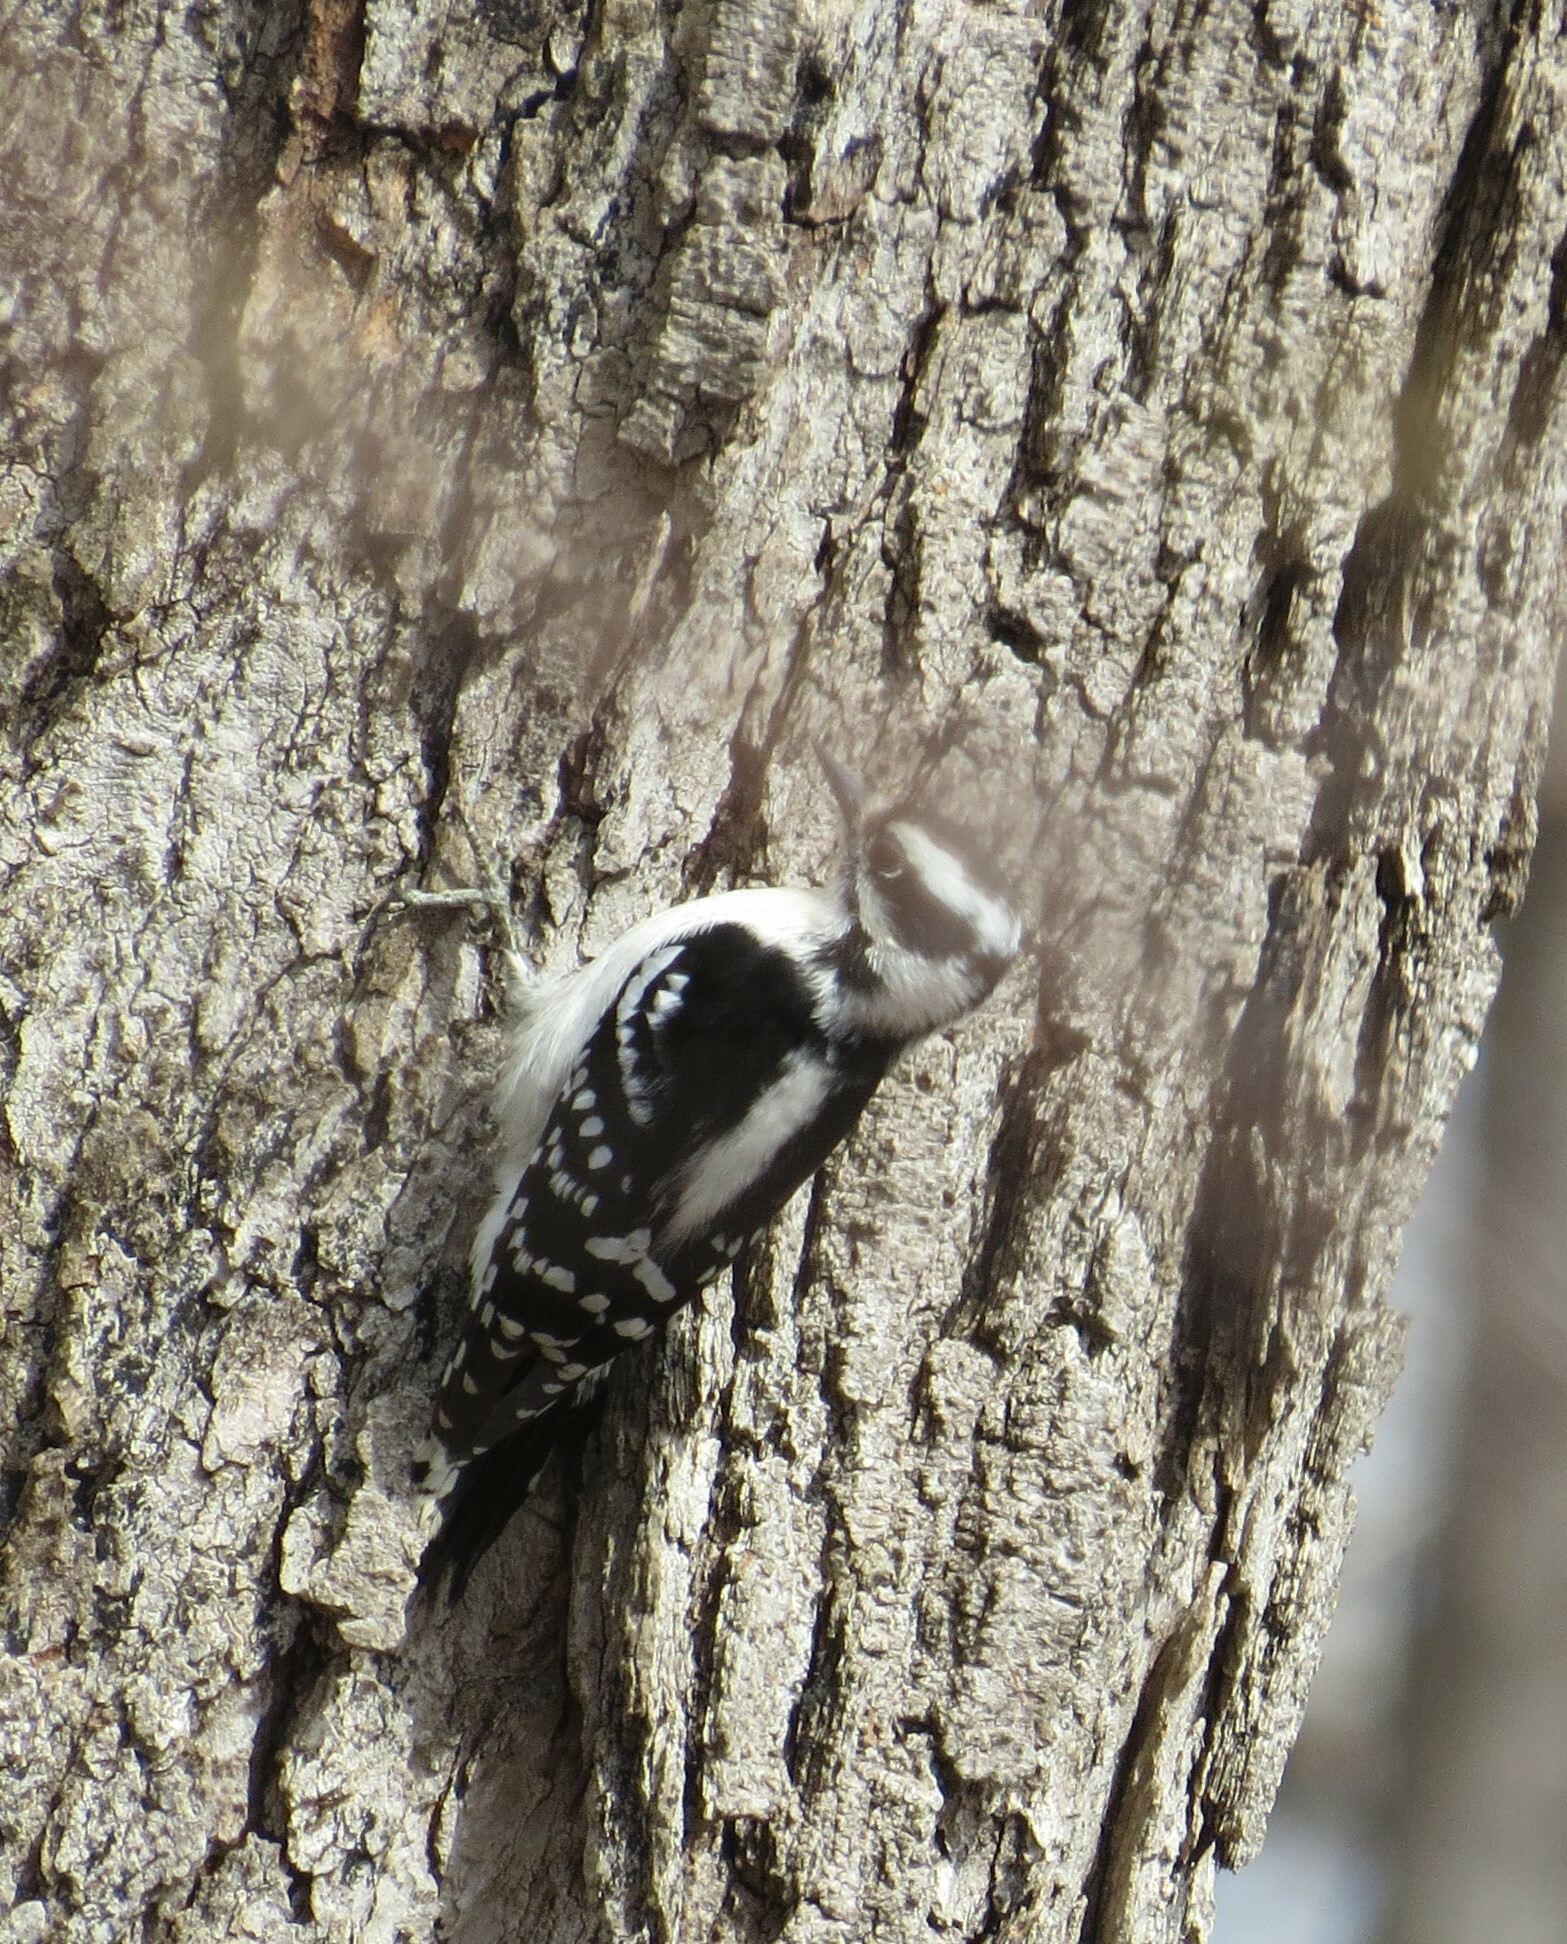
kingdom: Animalia
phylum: Chordata
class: Aves
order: Piciformes
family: Picidae
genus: Dryobates
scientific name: Dryobates pubescens
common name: Downy woodpecker
